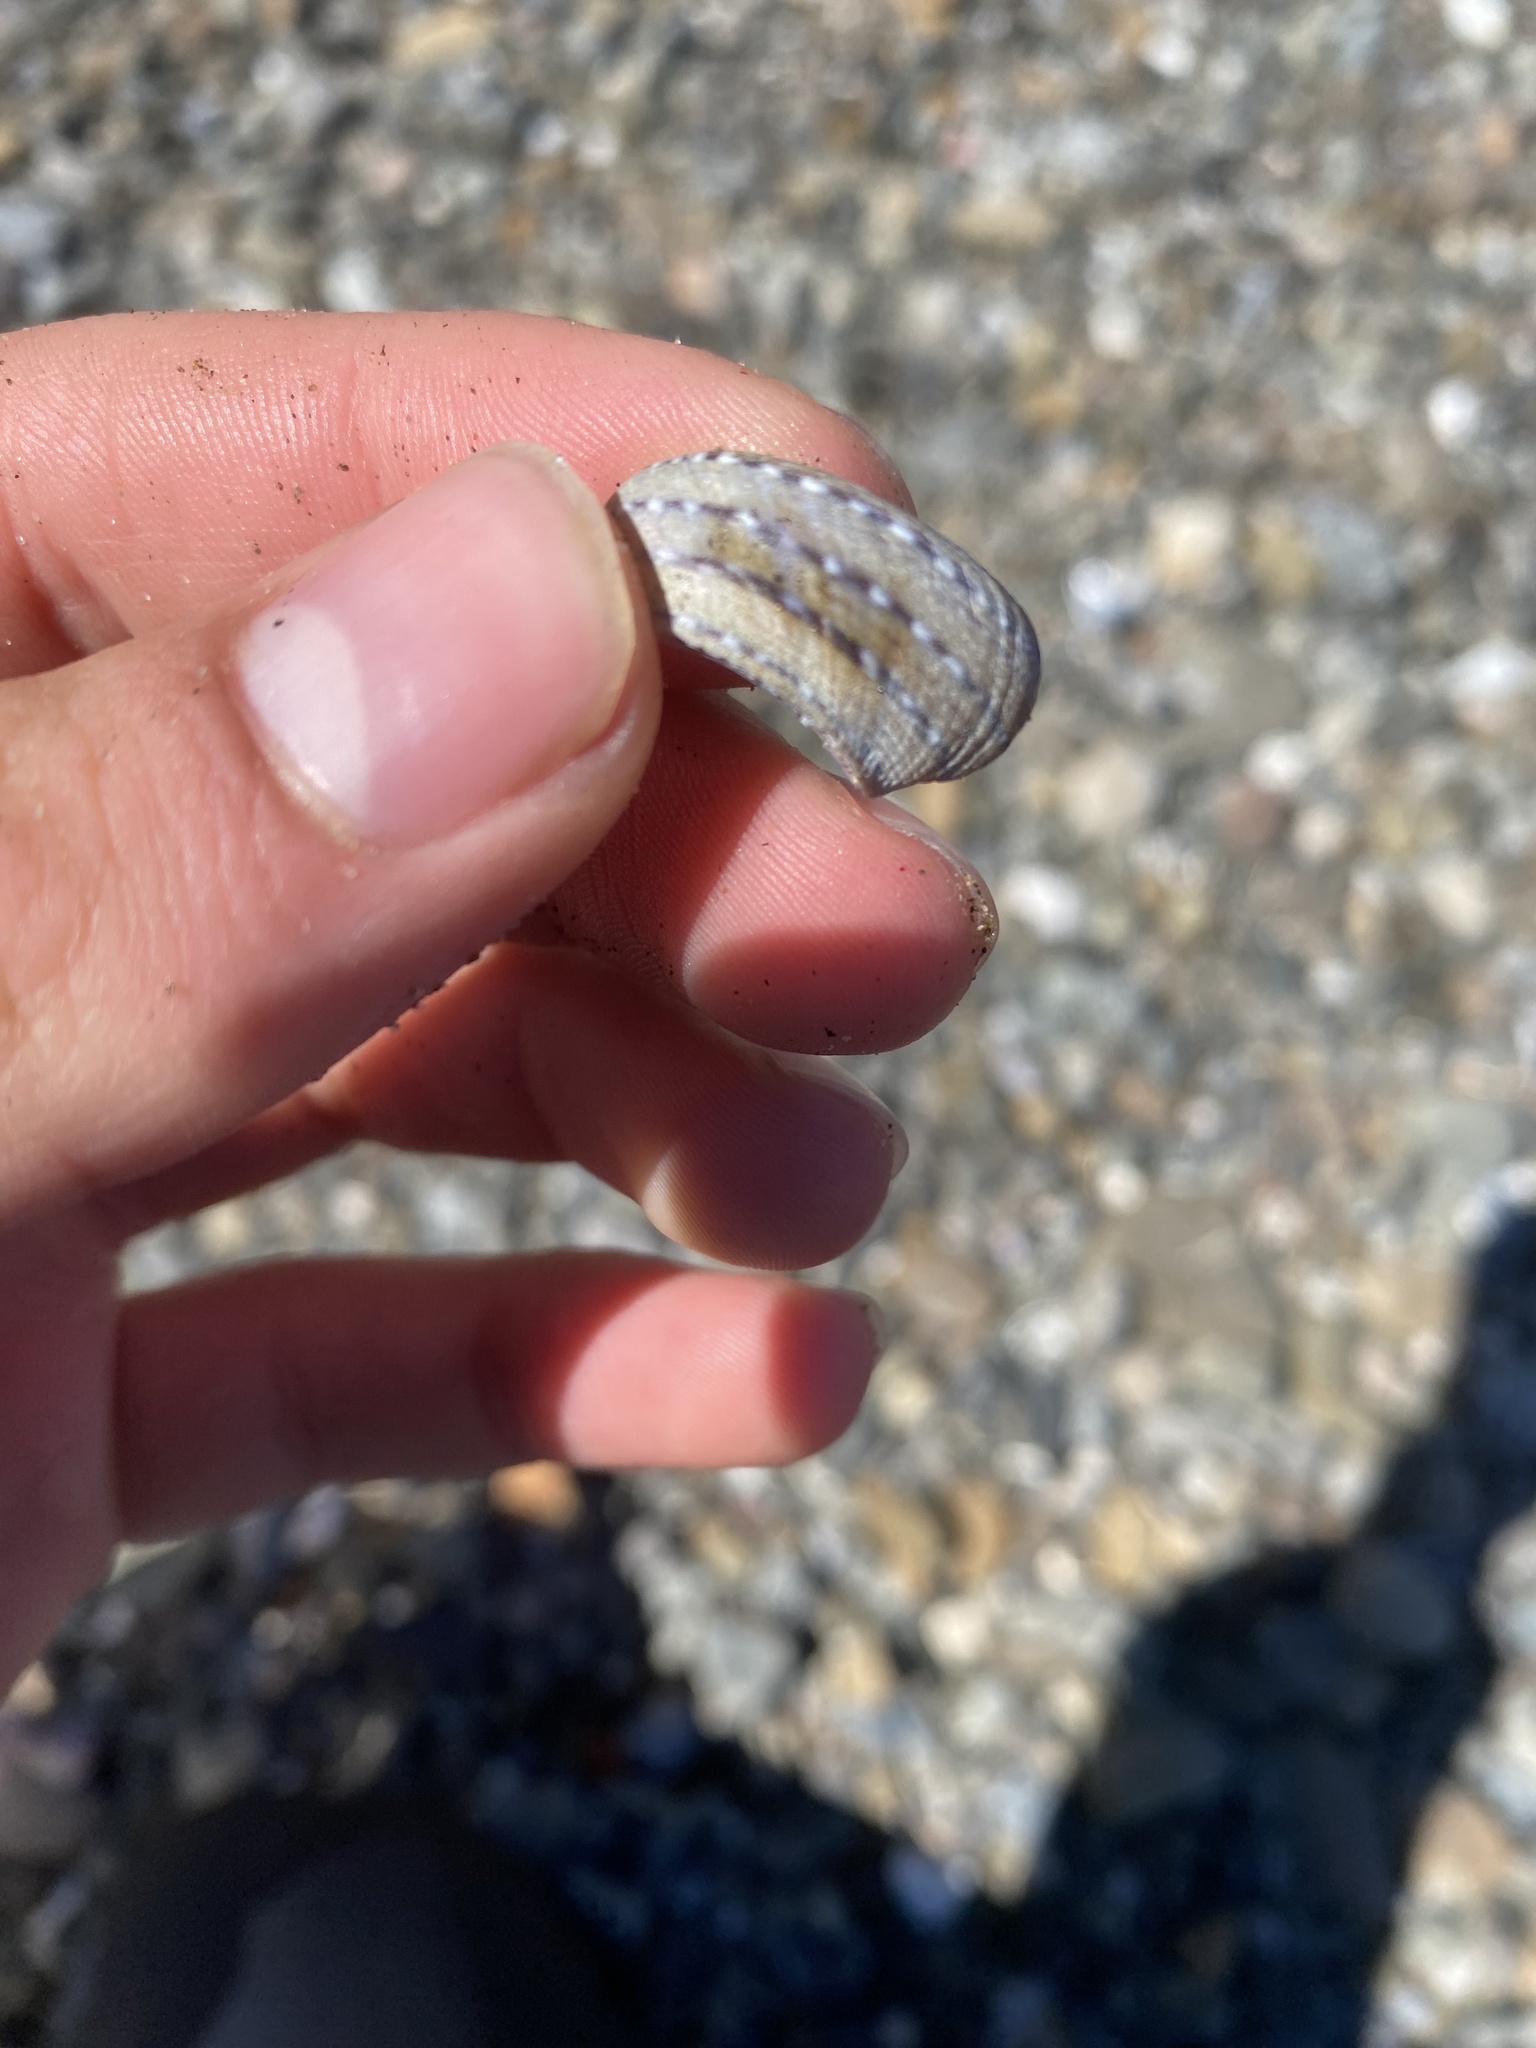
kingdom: Animalia
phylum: Mollusca
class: Gastropoda
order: Trochida
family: Calliostomatidae
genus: Calliostoma
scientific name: Calliostoma tricolor
